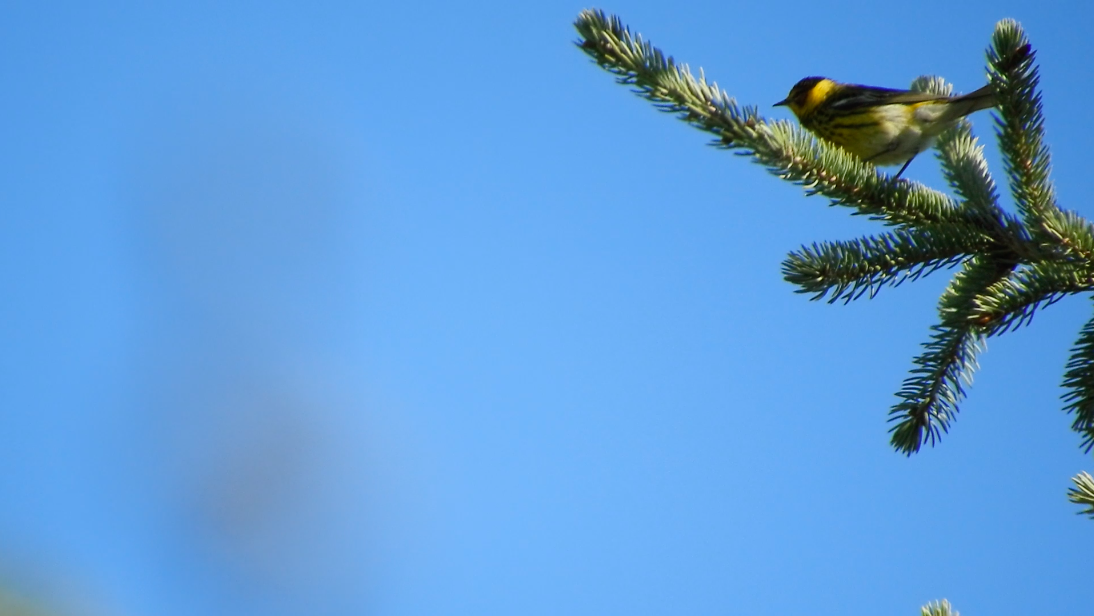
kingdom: Animalia
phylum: Chordata
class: Aves
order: Passeriformes
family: Parulidae
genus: Setophaga
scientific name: Setophaga tigrina
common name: Cape may warbler
